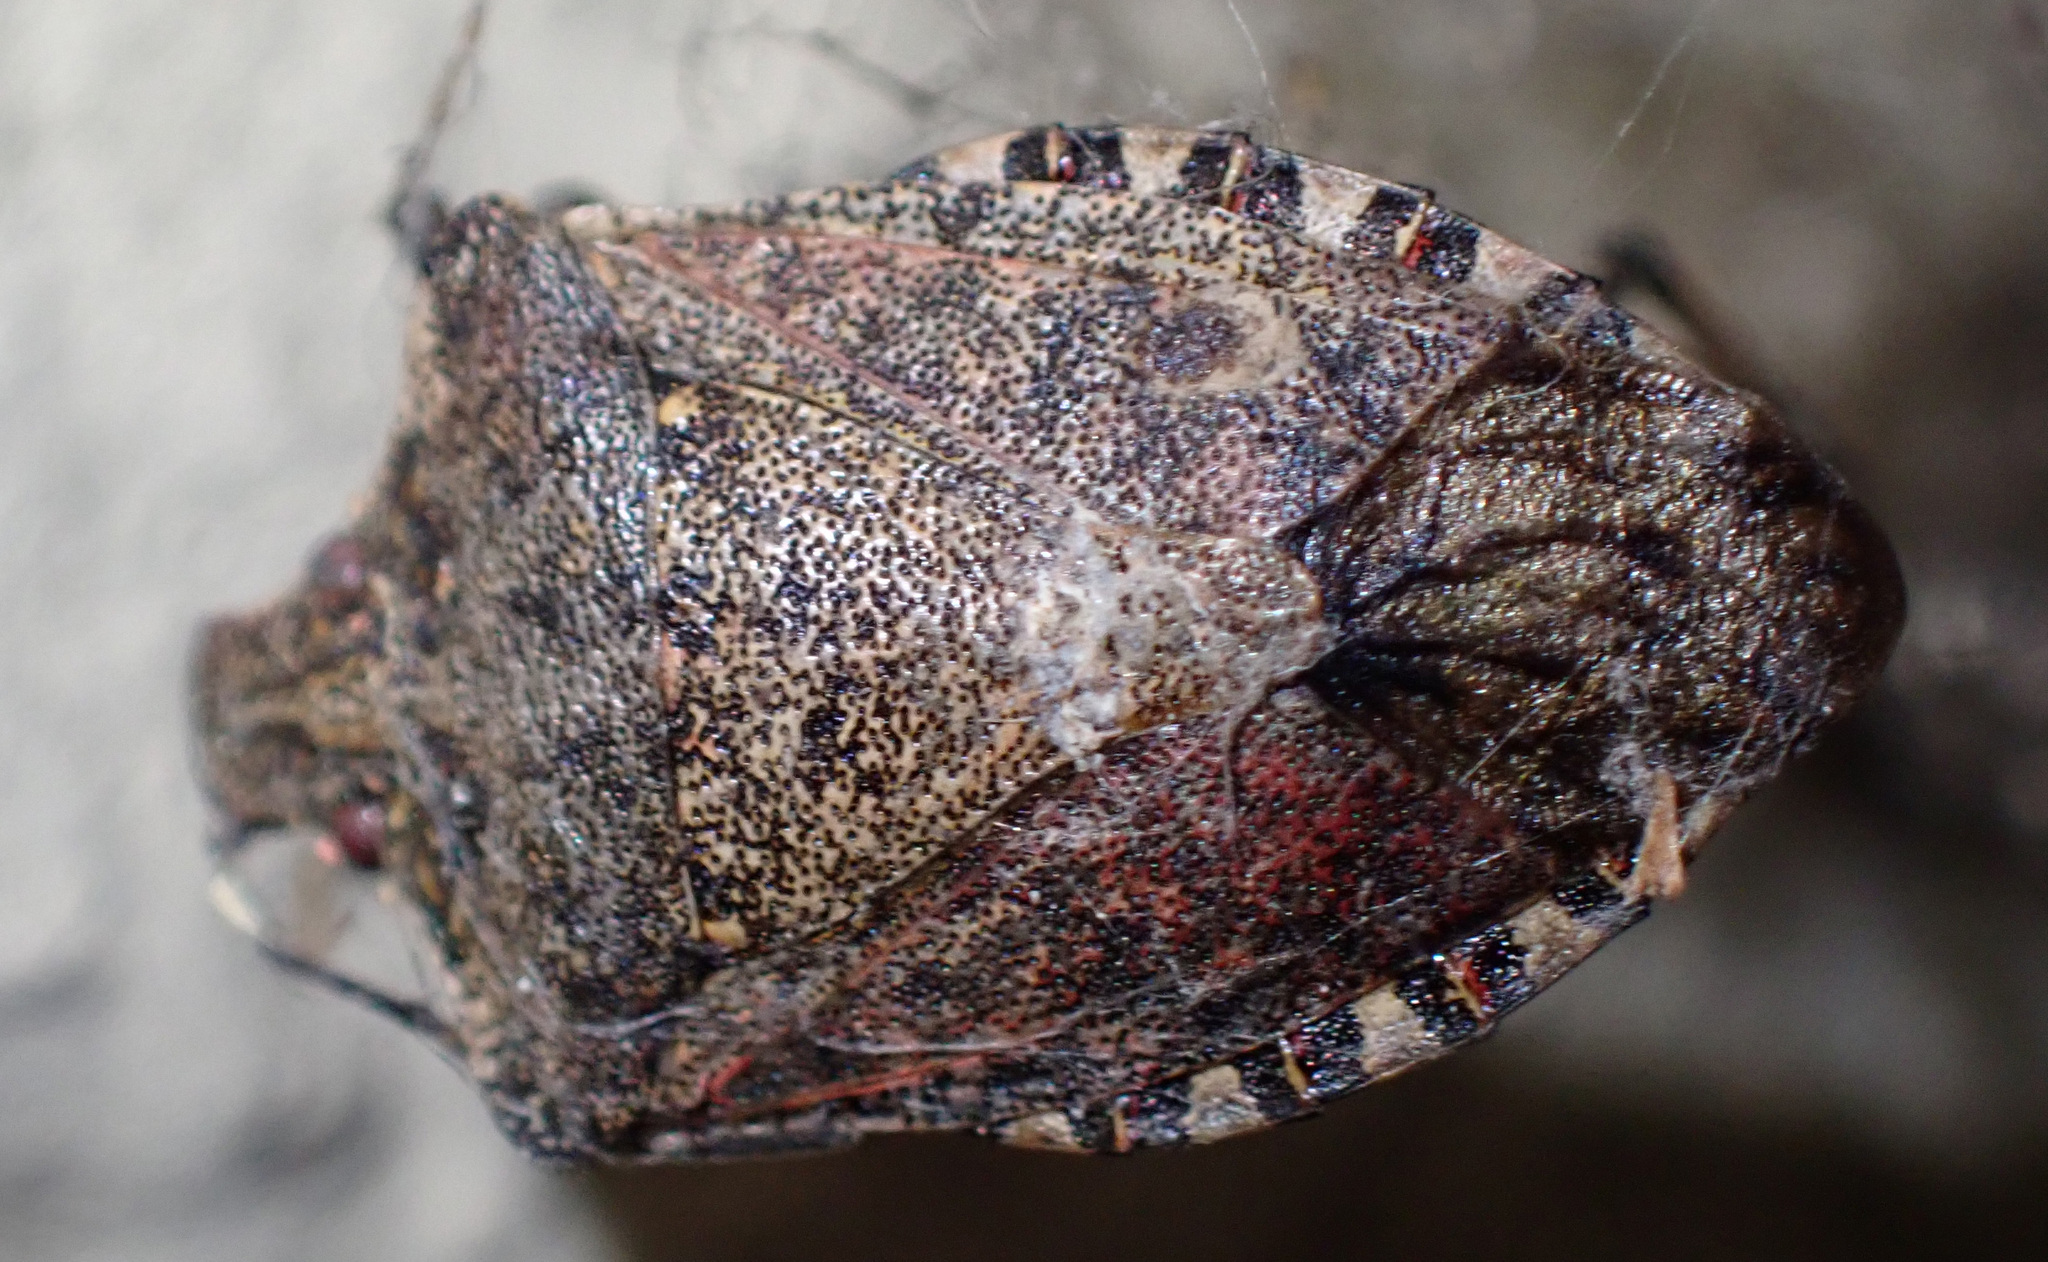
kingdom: Animalia
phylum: Arthropoda
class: Insecta
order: Hemiptera
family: Pentatomidae
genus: Halyomorpha
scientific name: Halyomorpha halys
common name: Brown marmorated stink bug
